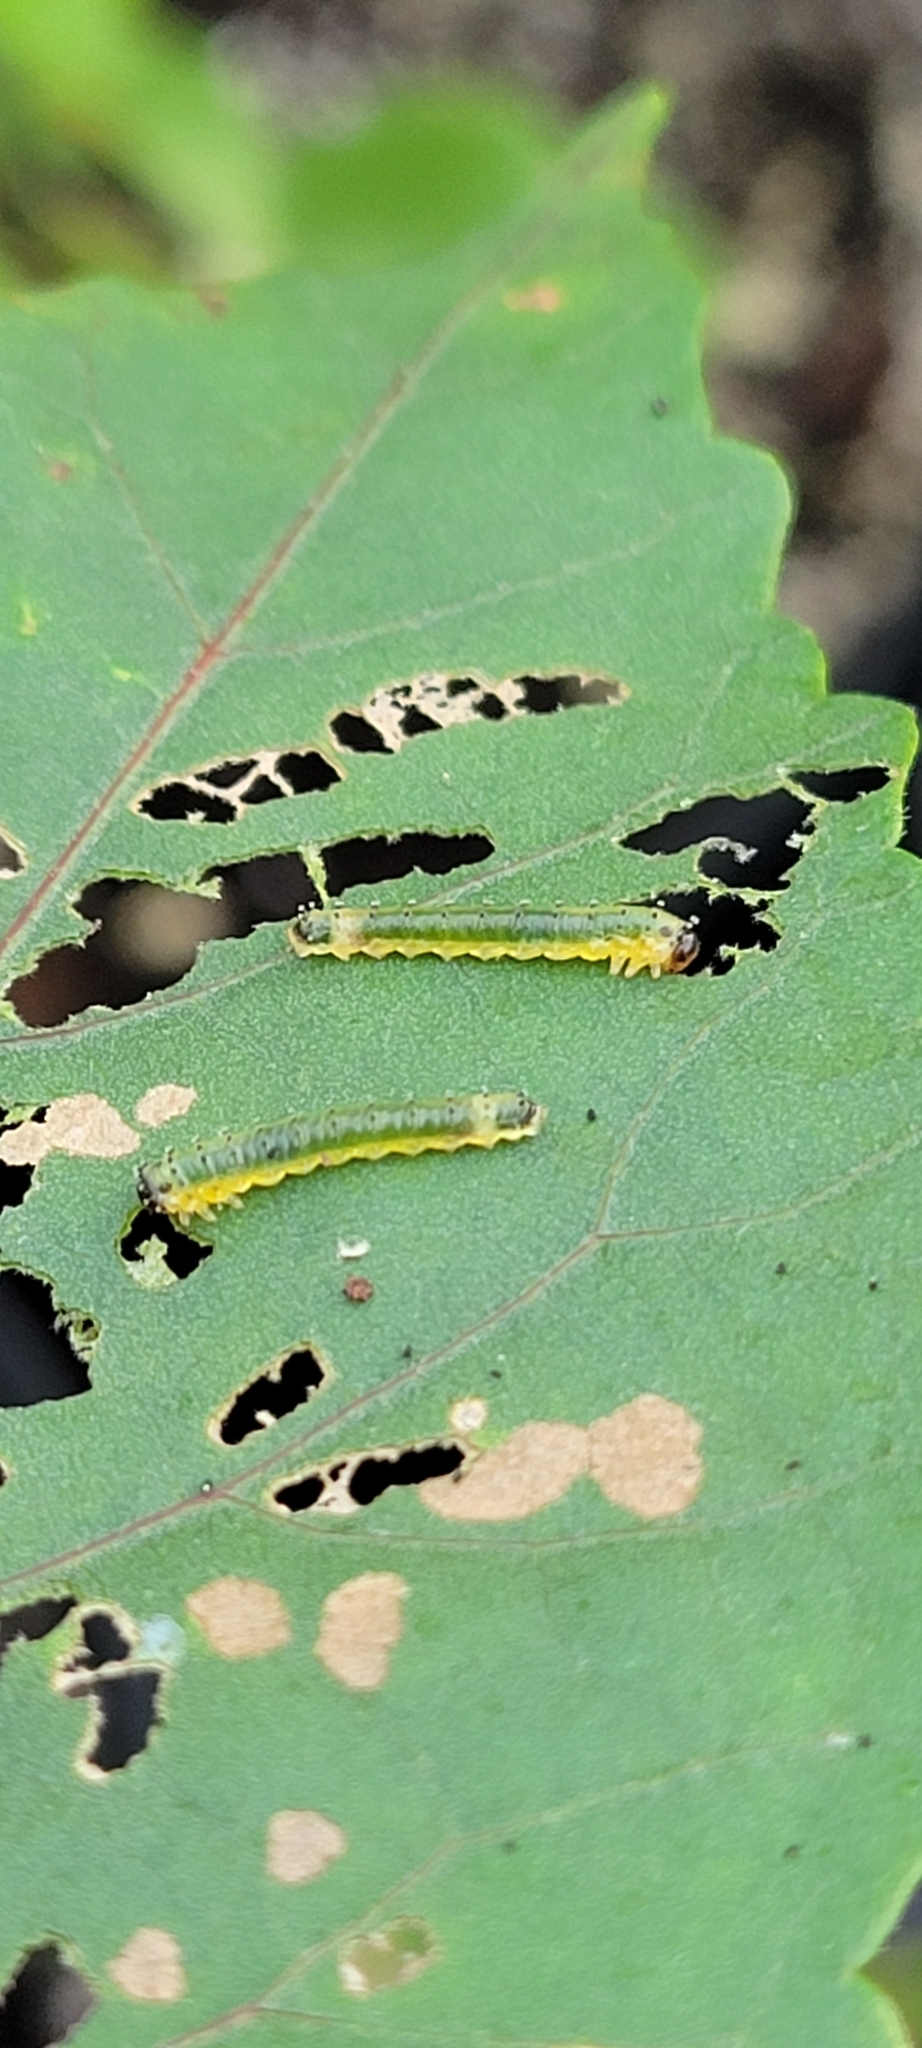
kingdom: Animalia
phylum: Arthropoda
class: Insecta
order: Hymenoptera
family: Argidae
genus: Atomacera
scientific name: Atomacera
